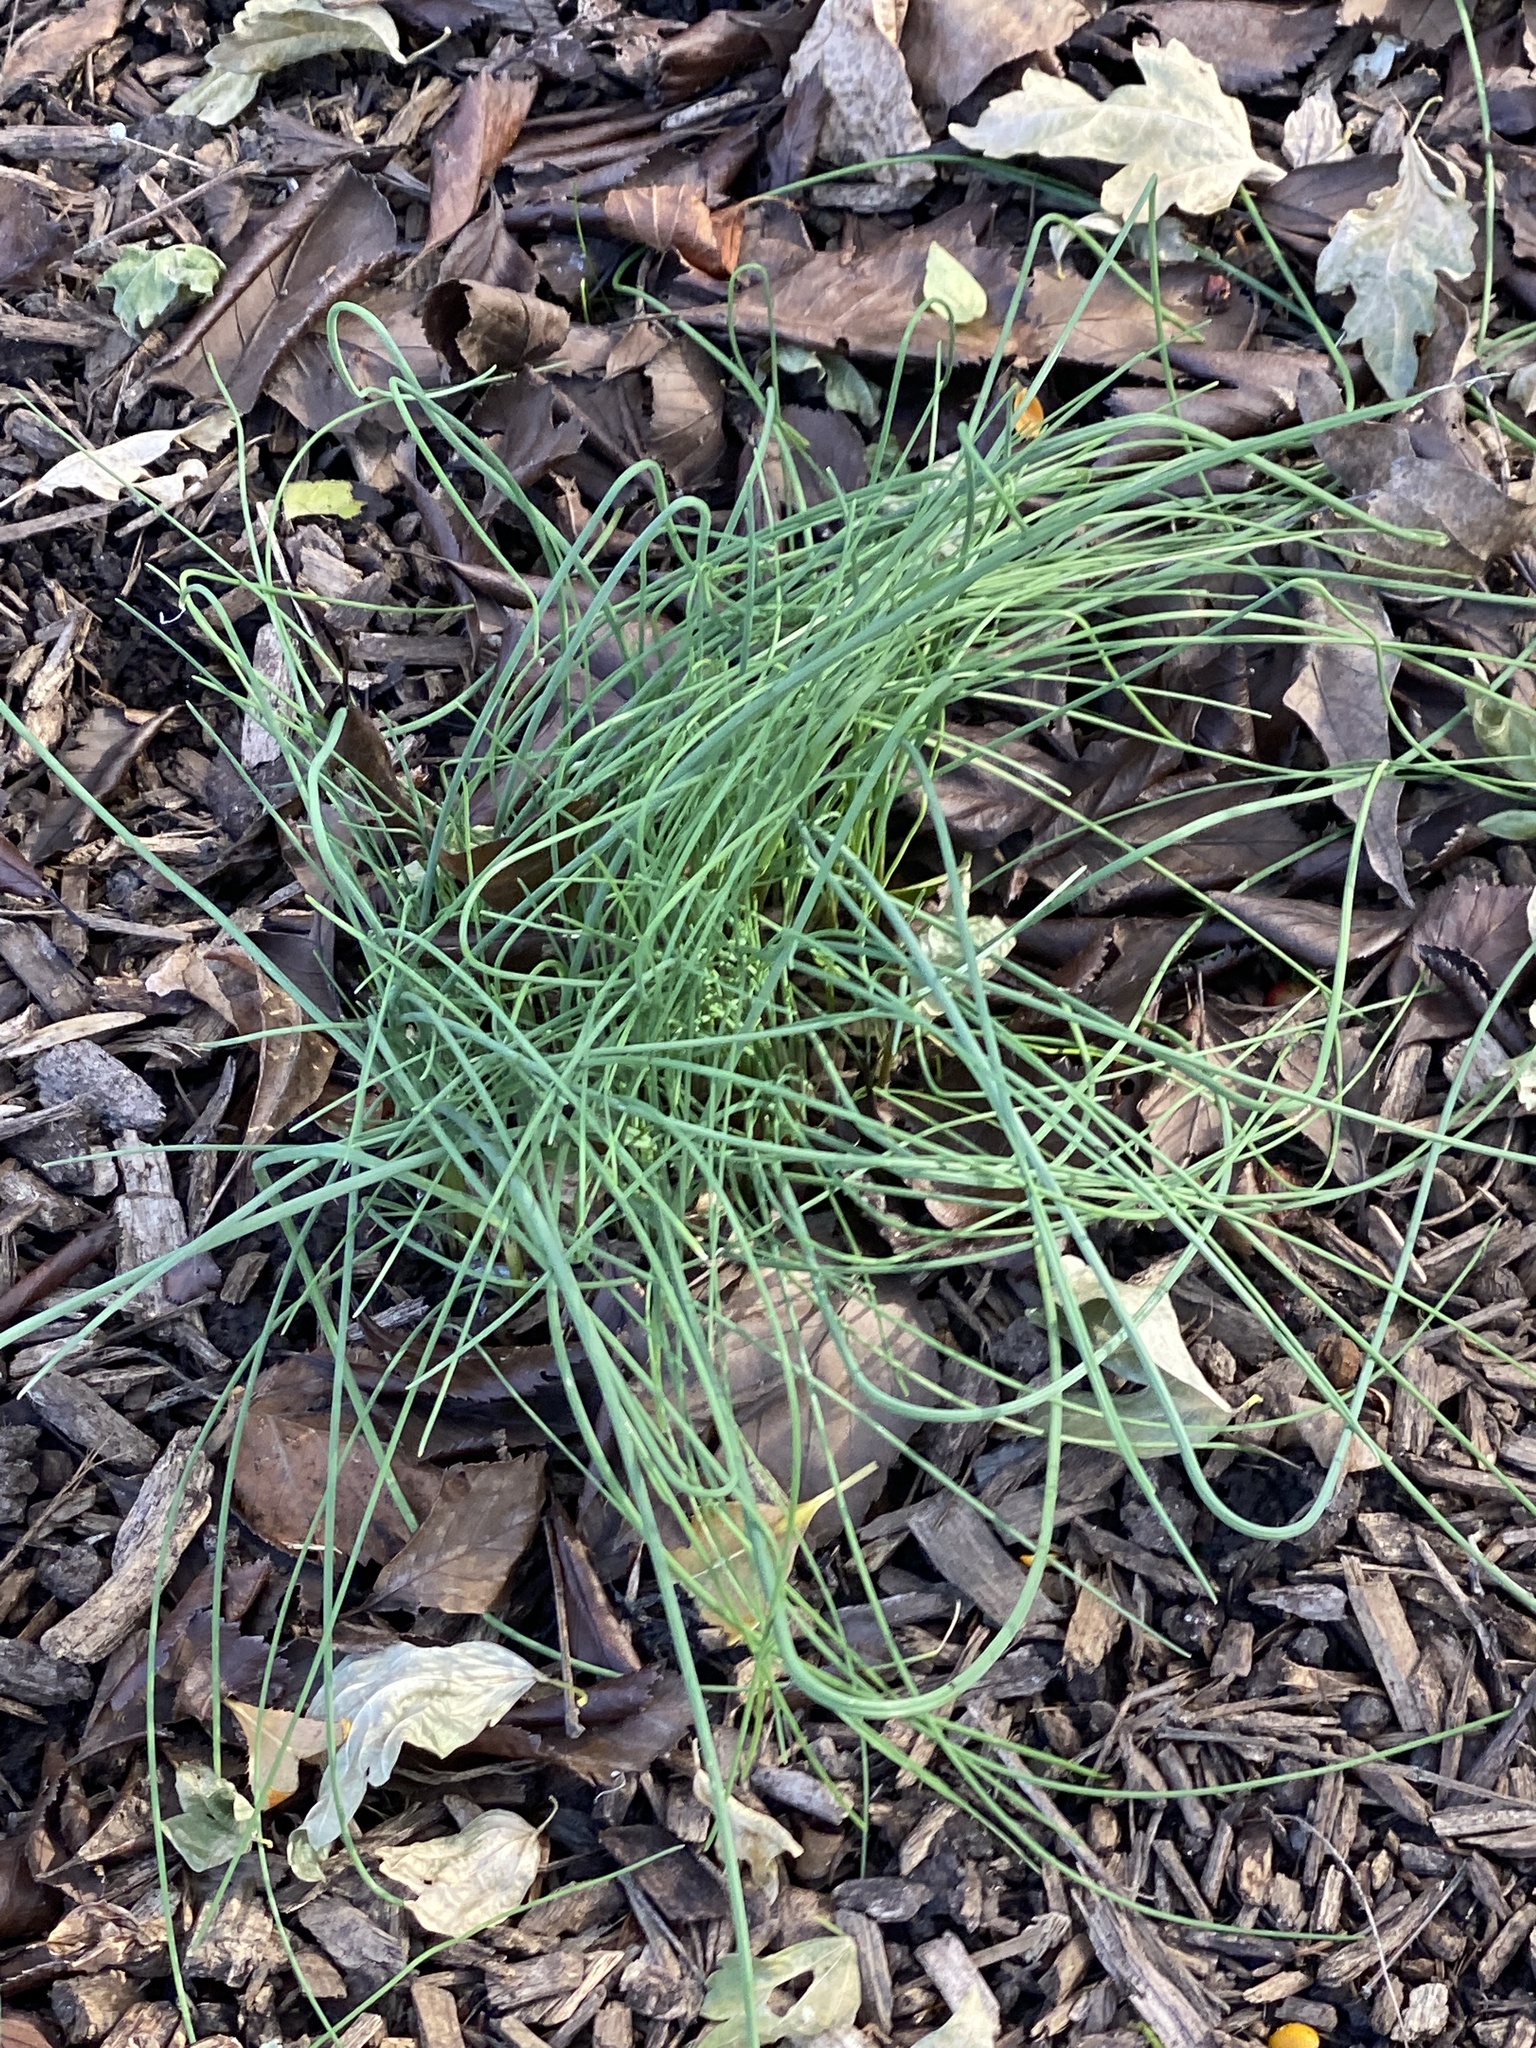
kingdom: Plantae
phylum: Tracheophyta
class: Liliopsida
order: Asparagales
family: Amaryllidaceae
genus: Allium
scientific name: Allium vineale
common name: Crow garlic
